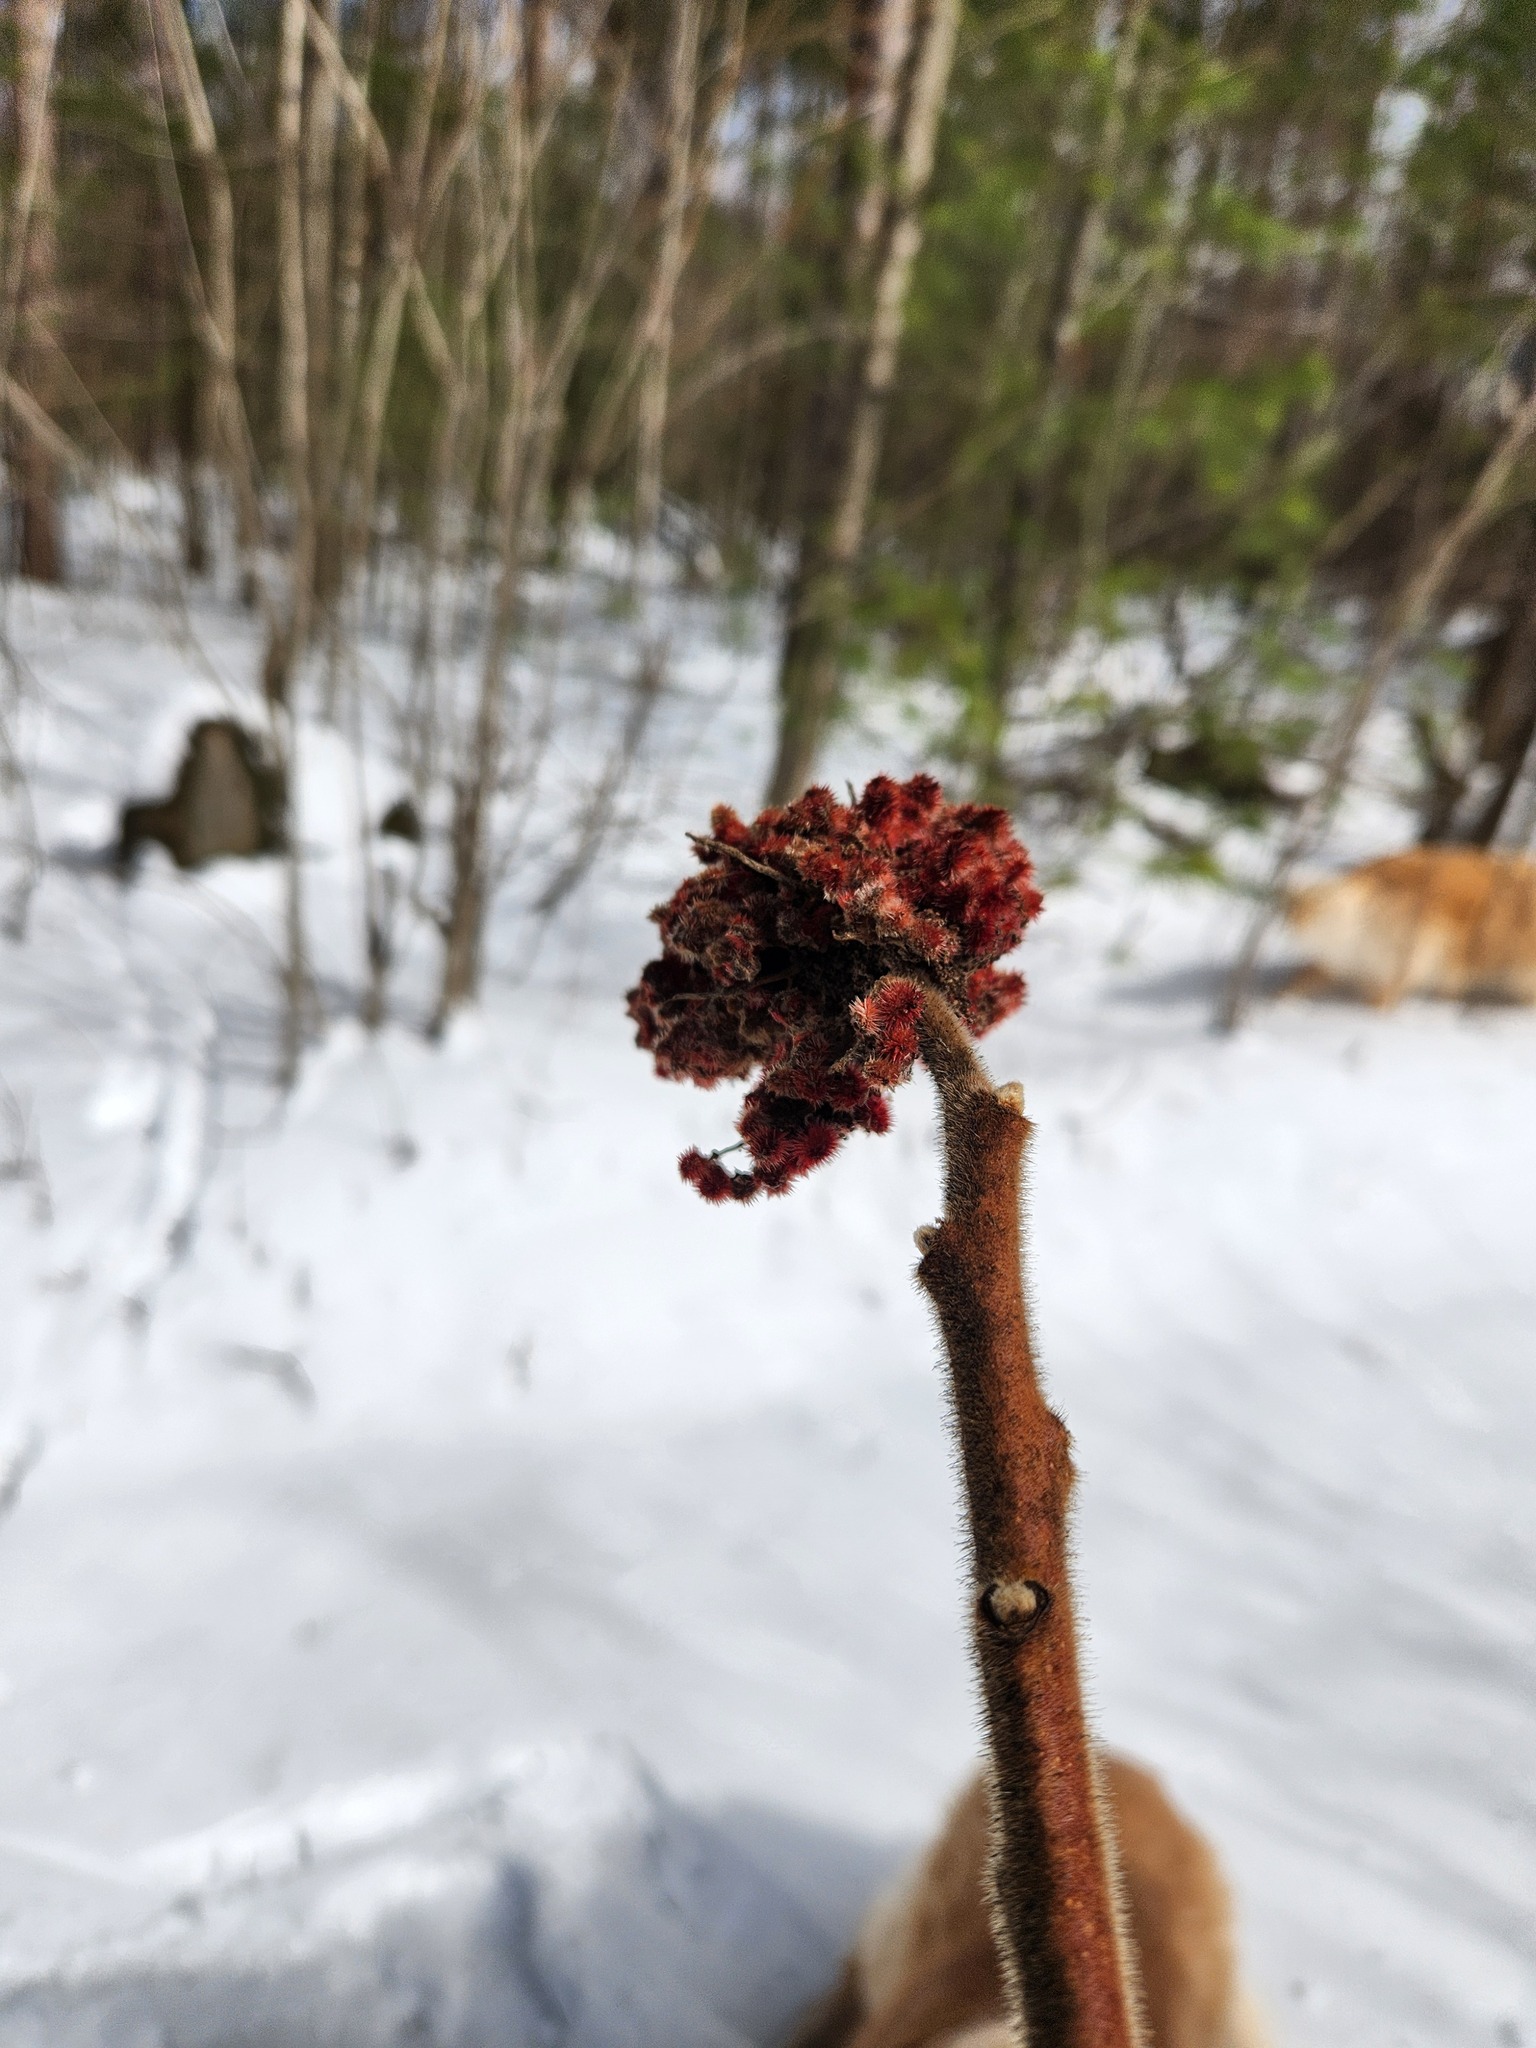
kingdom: Plantae
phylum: Tracheophyta
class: Magnoliopsida
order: Sapindales
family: Anacardiaceae
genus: Rhus
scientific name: Rhus typhina
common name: Staghorn sumac
